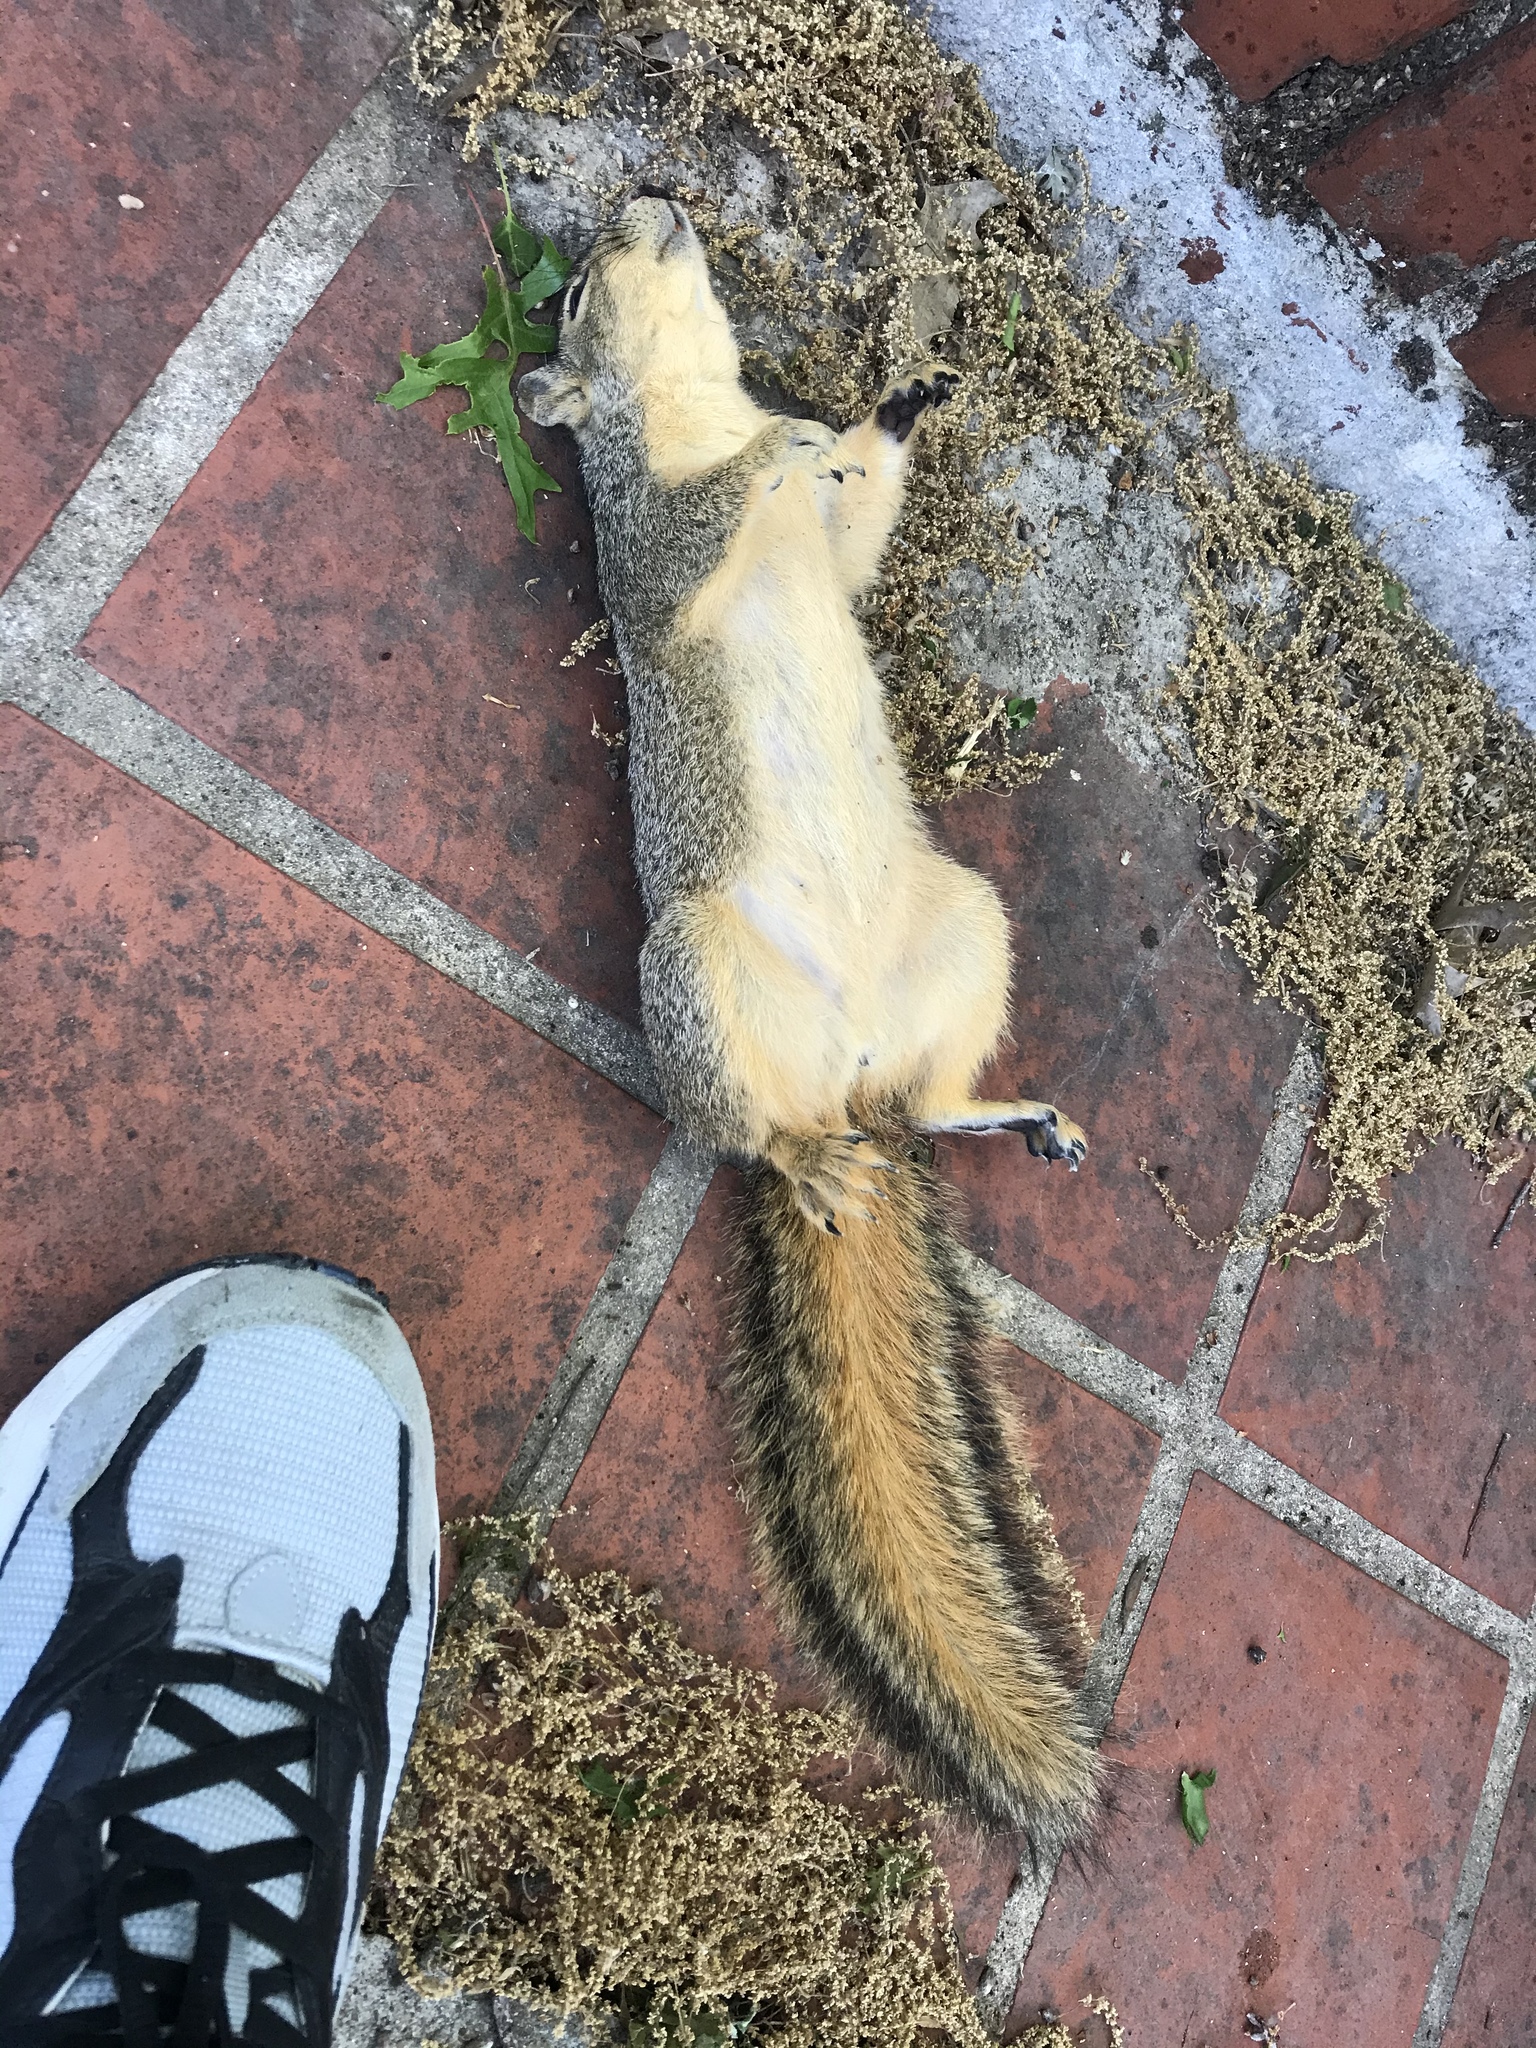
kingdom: Animalia
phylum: Chordata
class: Mammalia
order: Rodentia
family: Sciuridae
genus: Sciurus
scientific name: Sciurus niger
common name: Fox squirrel
